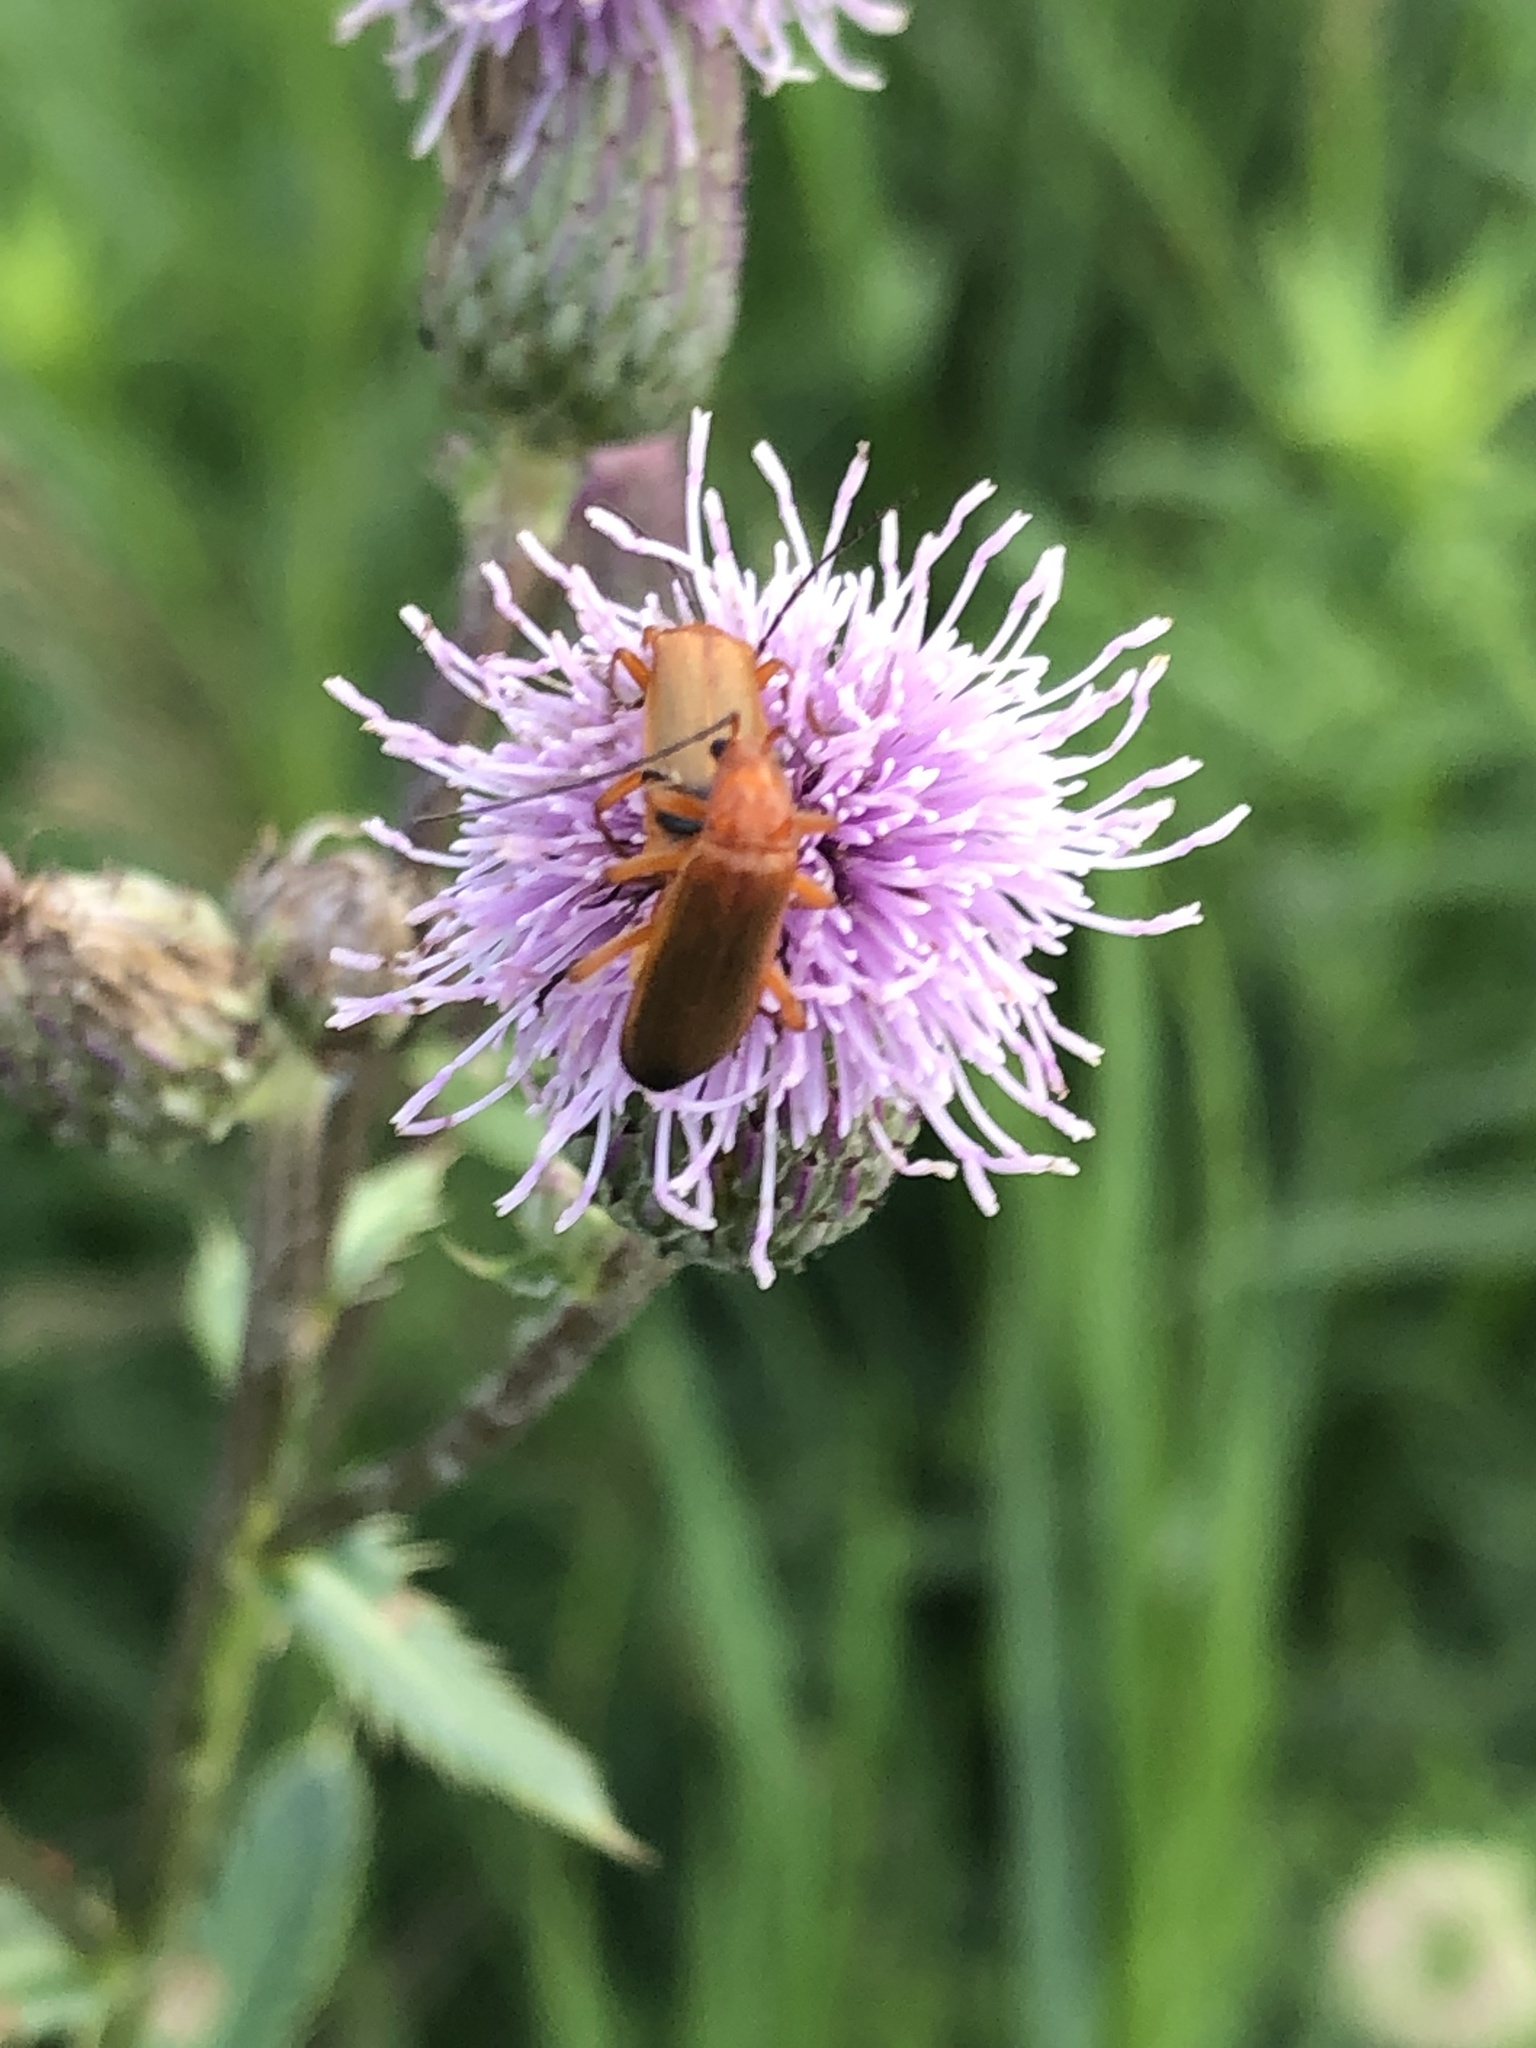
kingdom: Animalia
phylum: Arthropoda
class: Insecta
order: Coleoptera
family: Cantharidae
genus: Rhagonycha
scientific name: Rhagonycha fulva
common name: Common red soldier beetle
